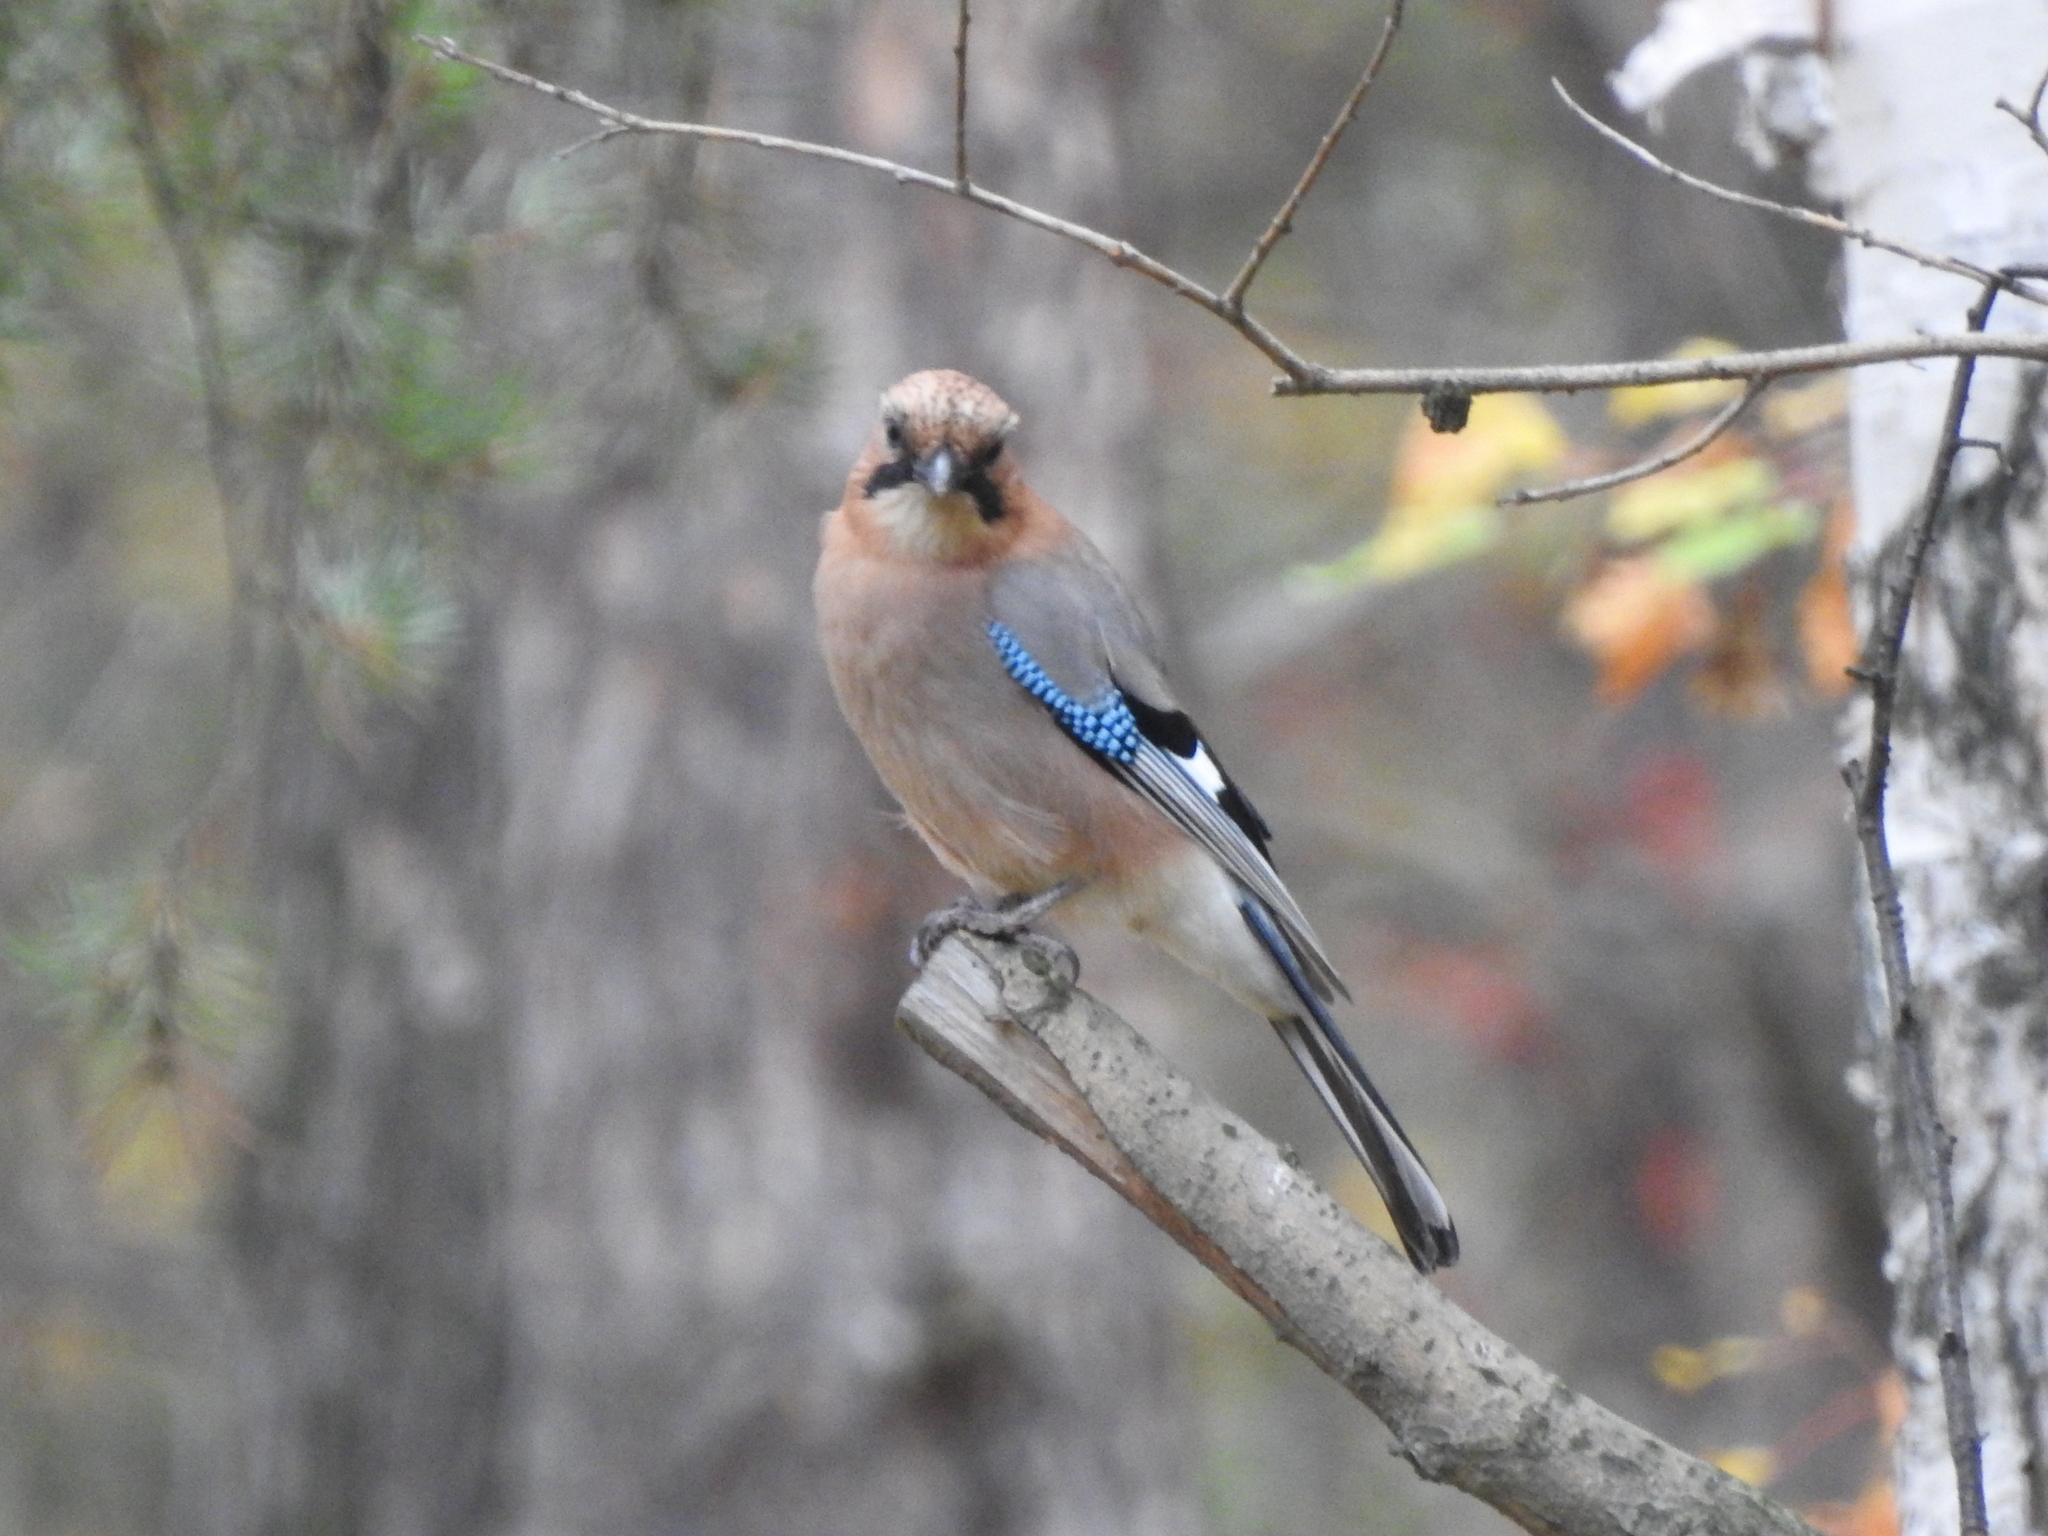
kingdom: Animalia
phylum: Chordata
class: Aves
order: Passeriformes
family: Corvidae
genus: Garrulus
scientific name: Garrulus glandarius
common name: Eurasian jay
